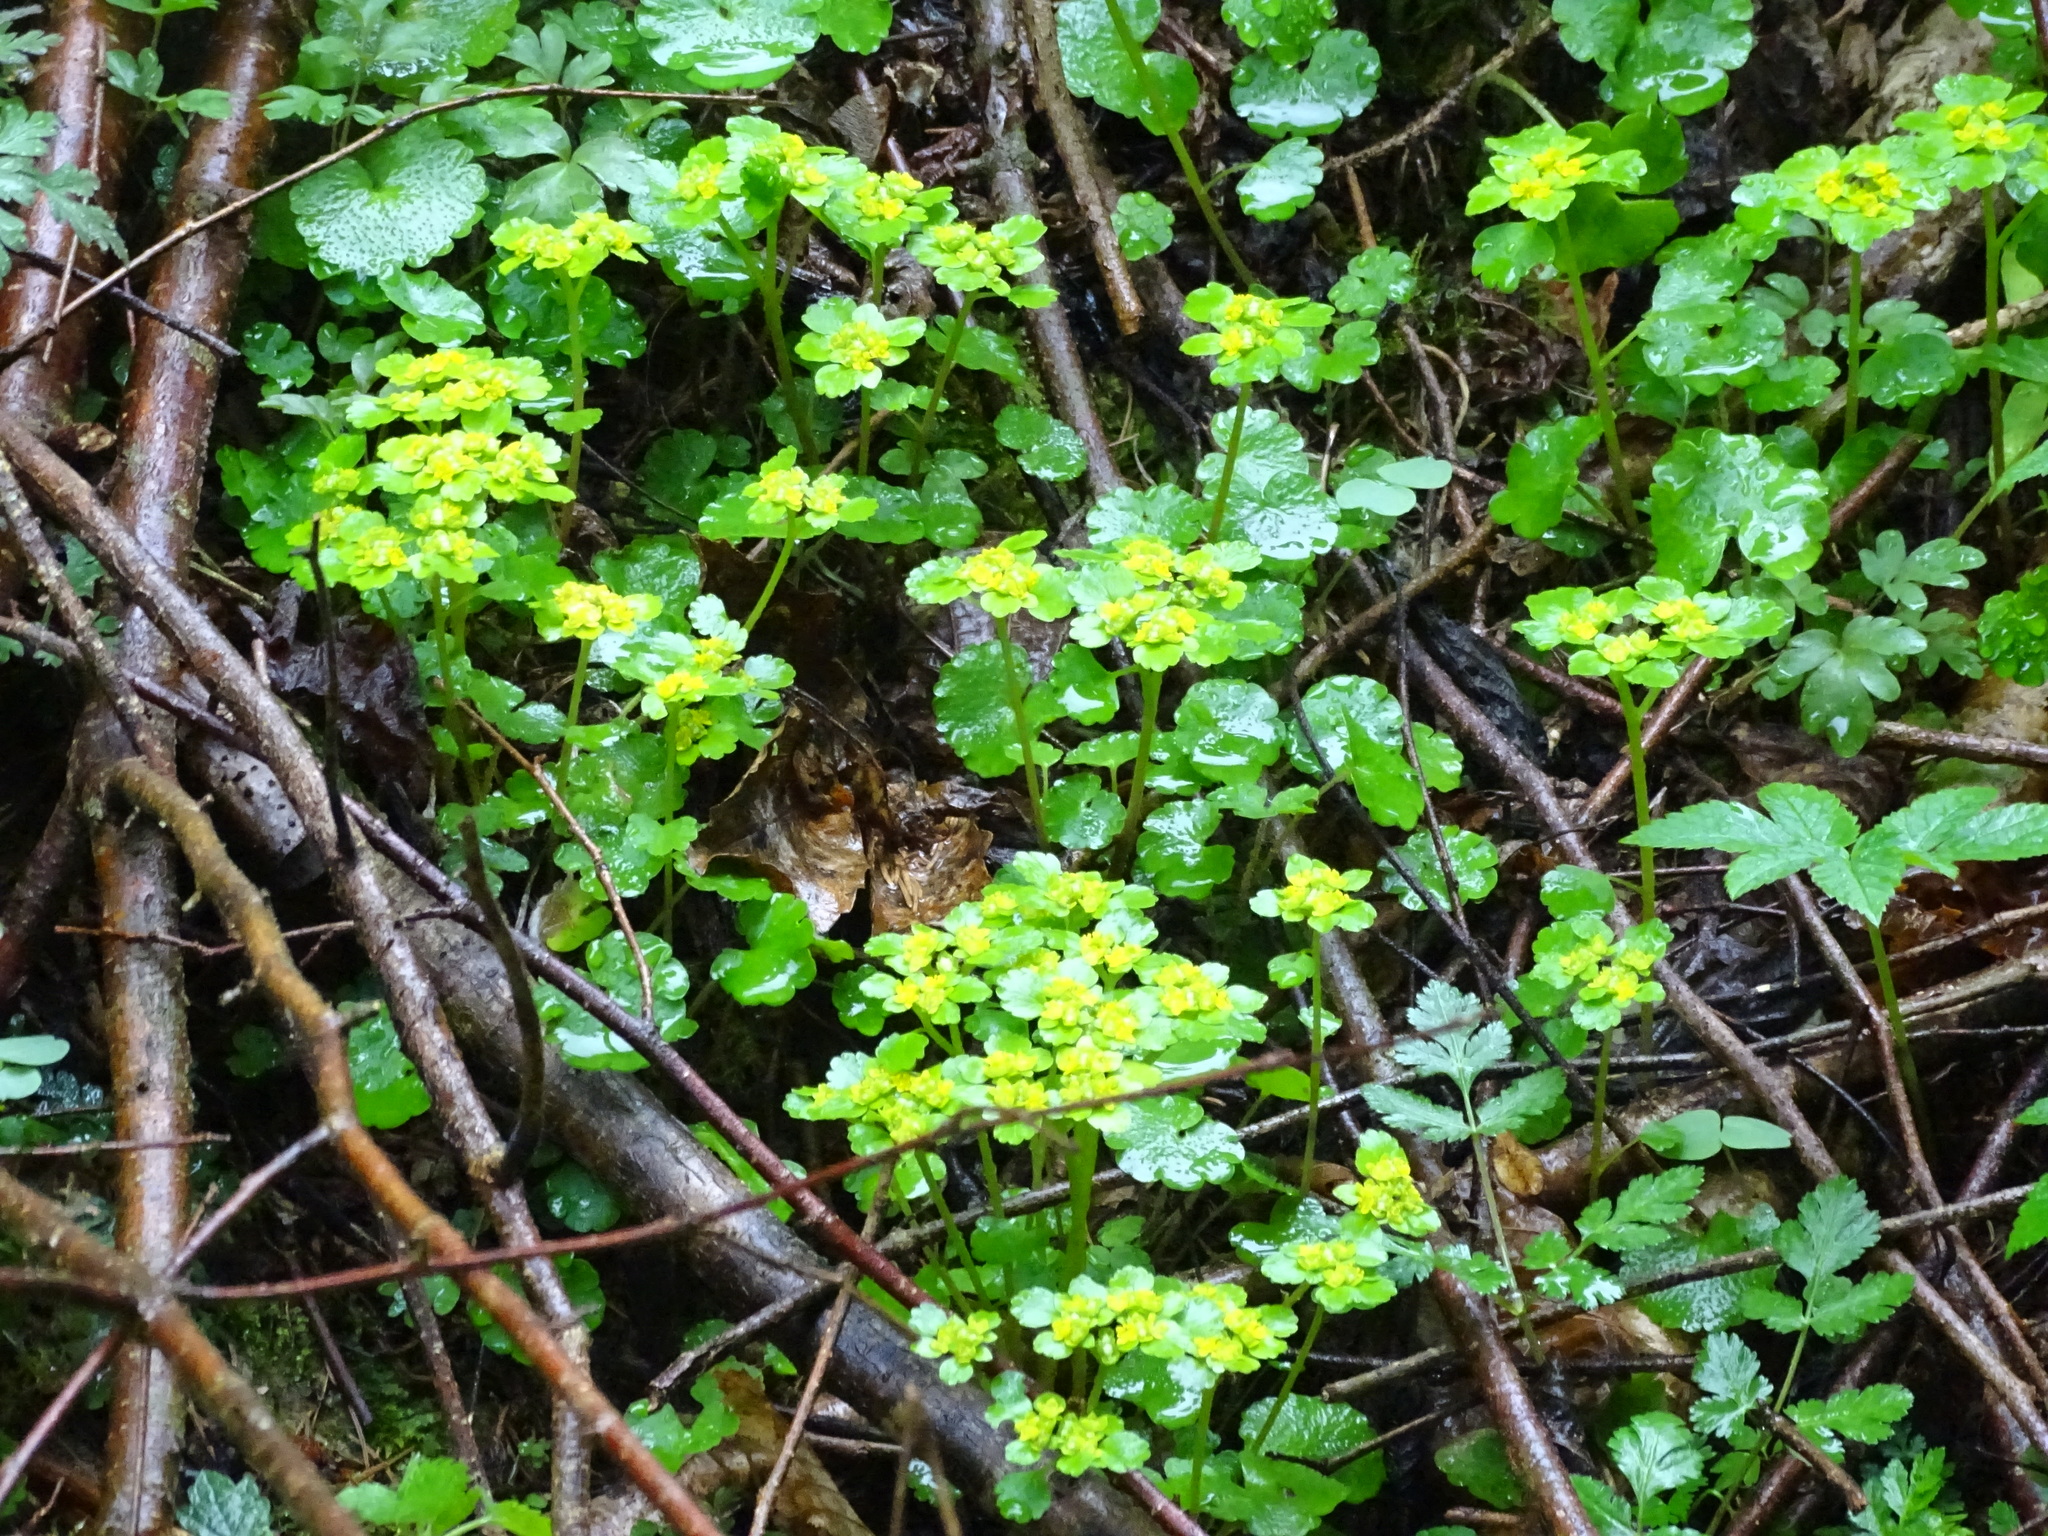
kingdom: Plantae
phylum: Tracheophyta
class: Magnoliopsida
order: Saxifragales
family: Saxifragaceae
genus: Chrysosplenium
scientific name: Chrysosplenium alternifolium
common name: Alternate-leaved golden-saxifrage
